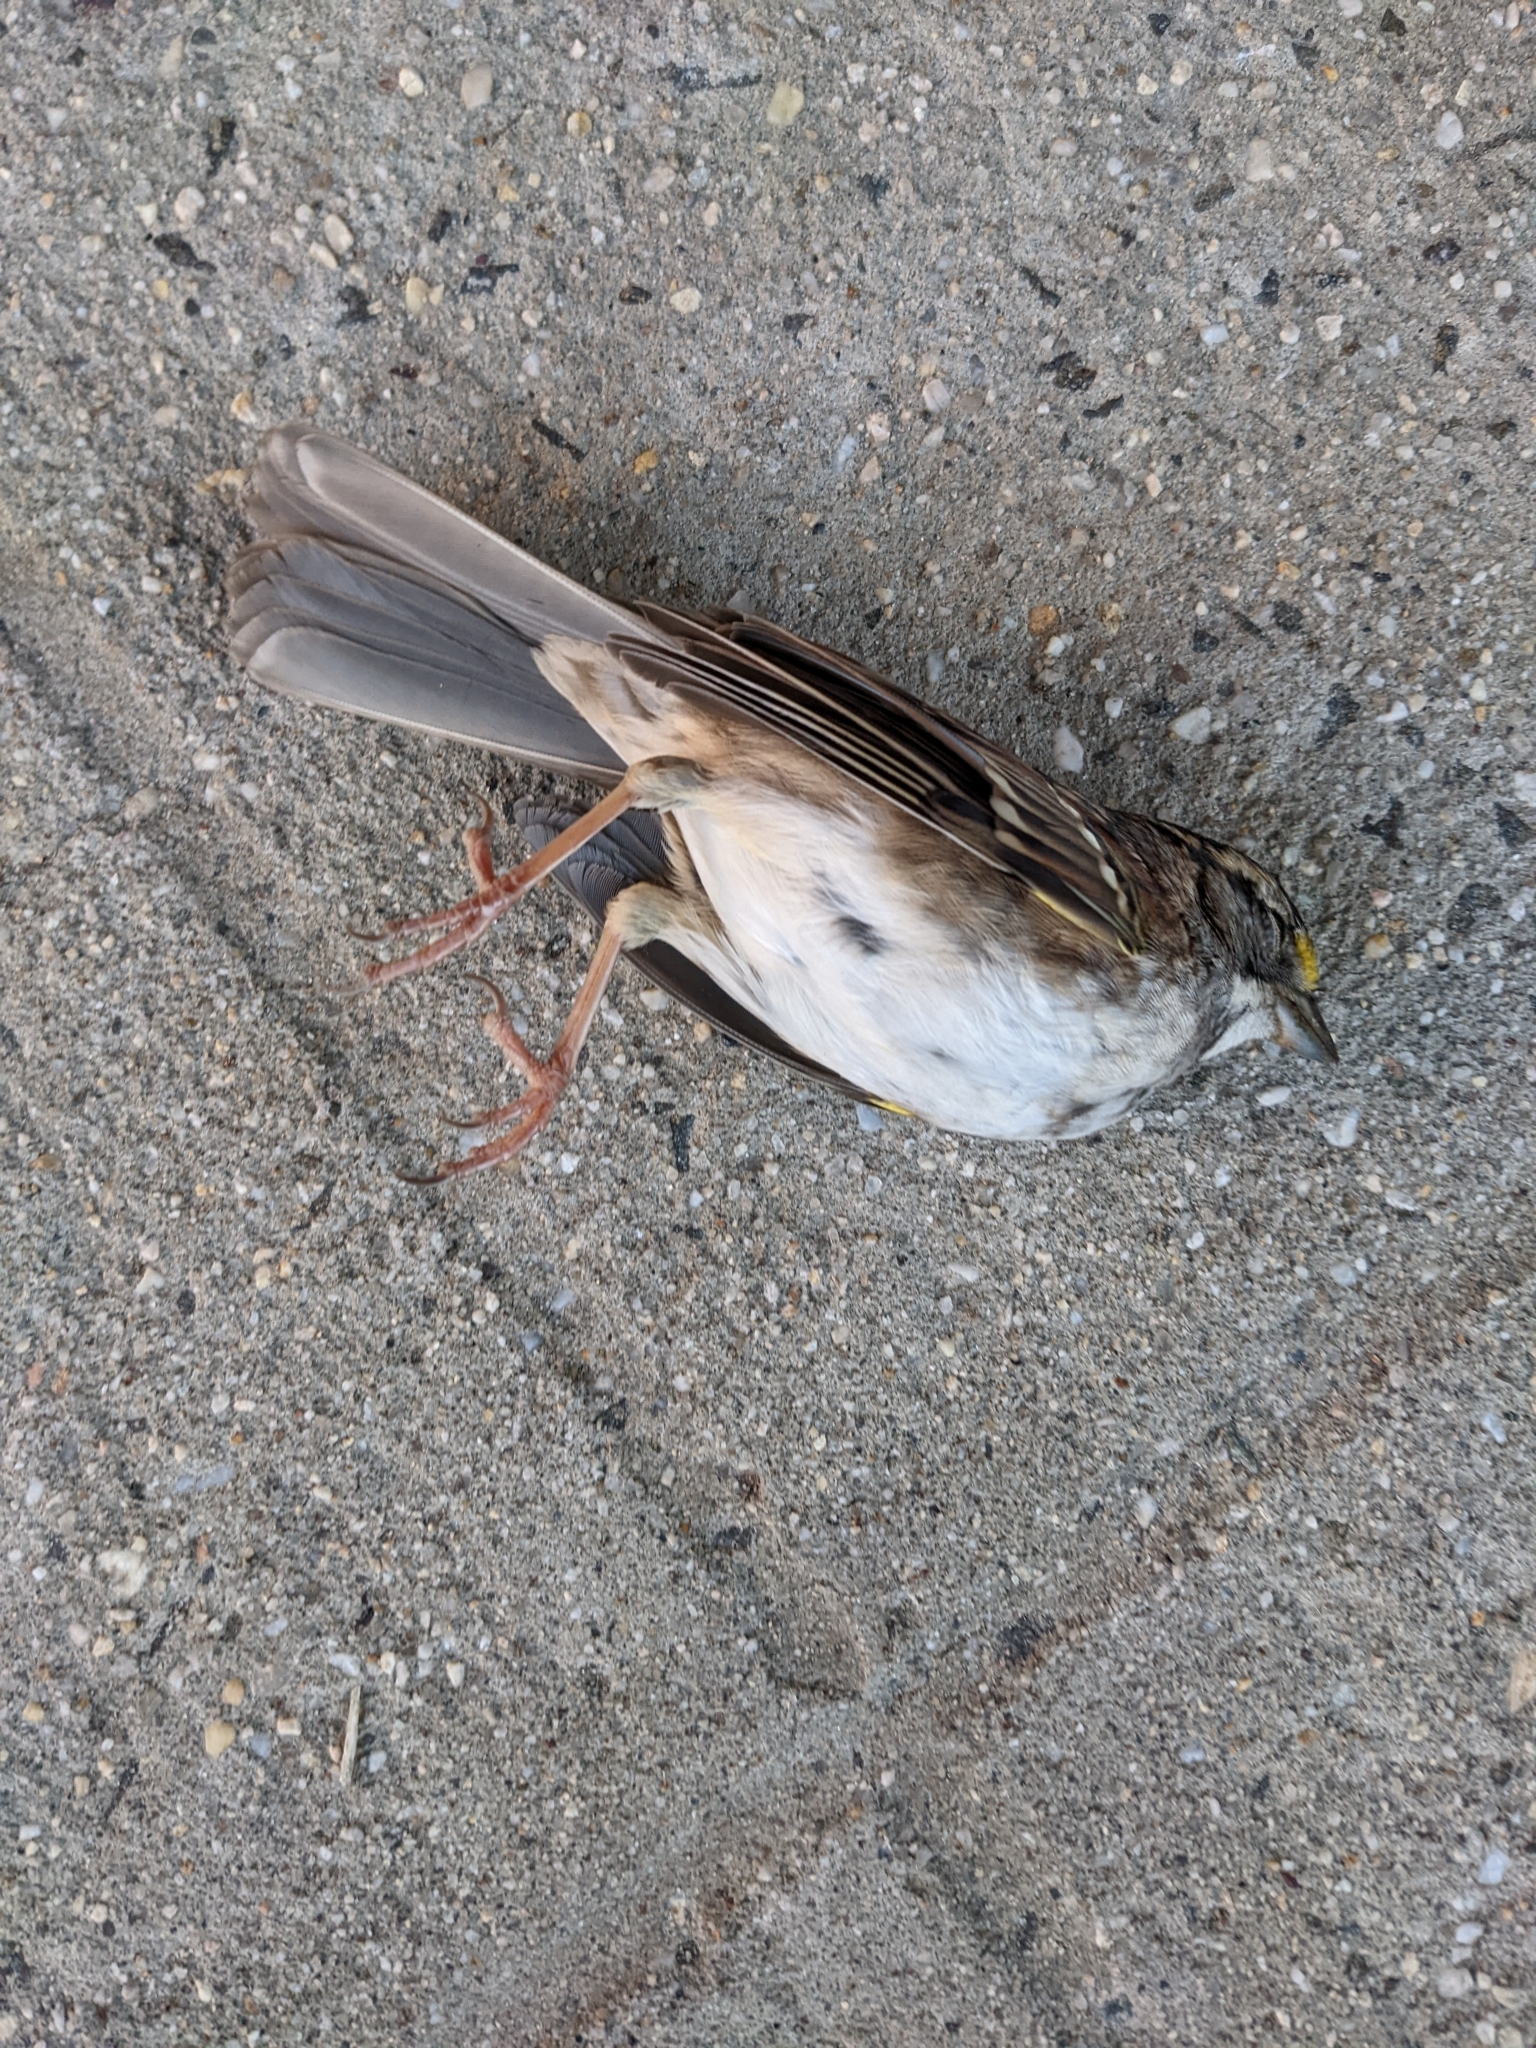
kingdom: Animalia
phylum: Chordata
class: Aves
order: Passeriformes
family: Passerellidae
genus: Zonotrichia
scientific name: Zonotrichia albicollis
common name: White-throated sparrow
